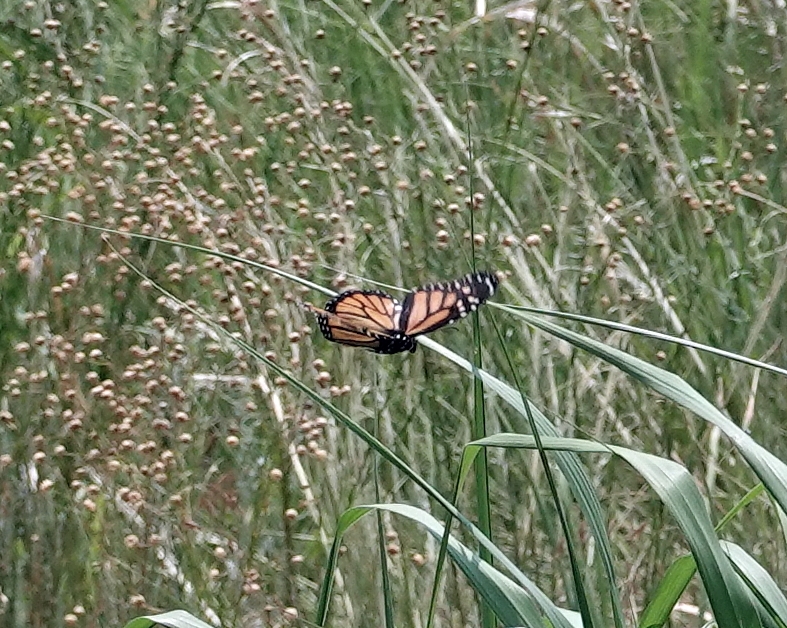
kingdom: Animalia
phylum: Arthropoda
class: Insecta
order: Lepidoptera
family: Nymphalidae
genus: Danaus
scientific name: Danaus plexippus
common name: Monarch
